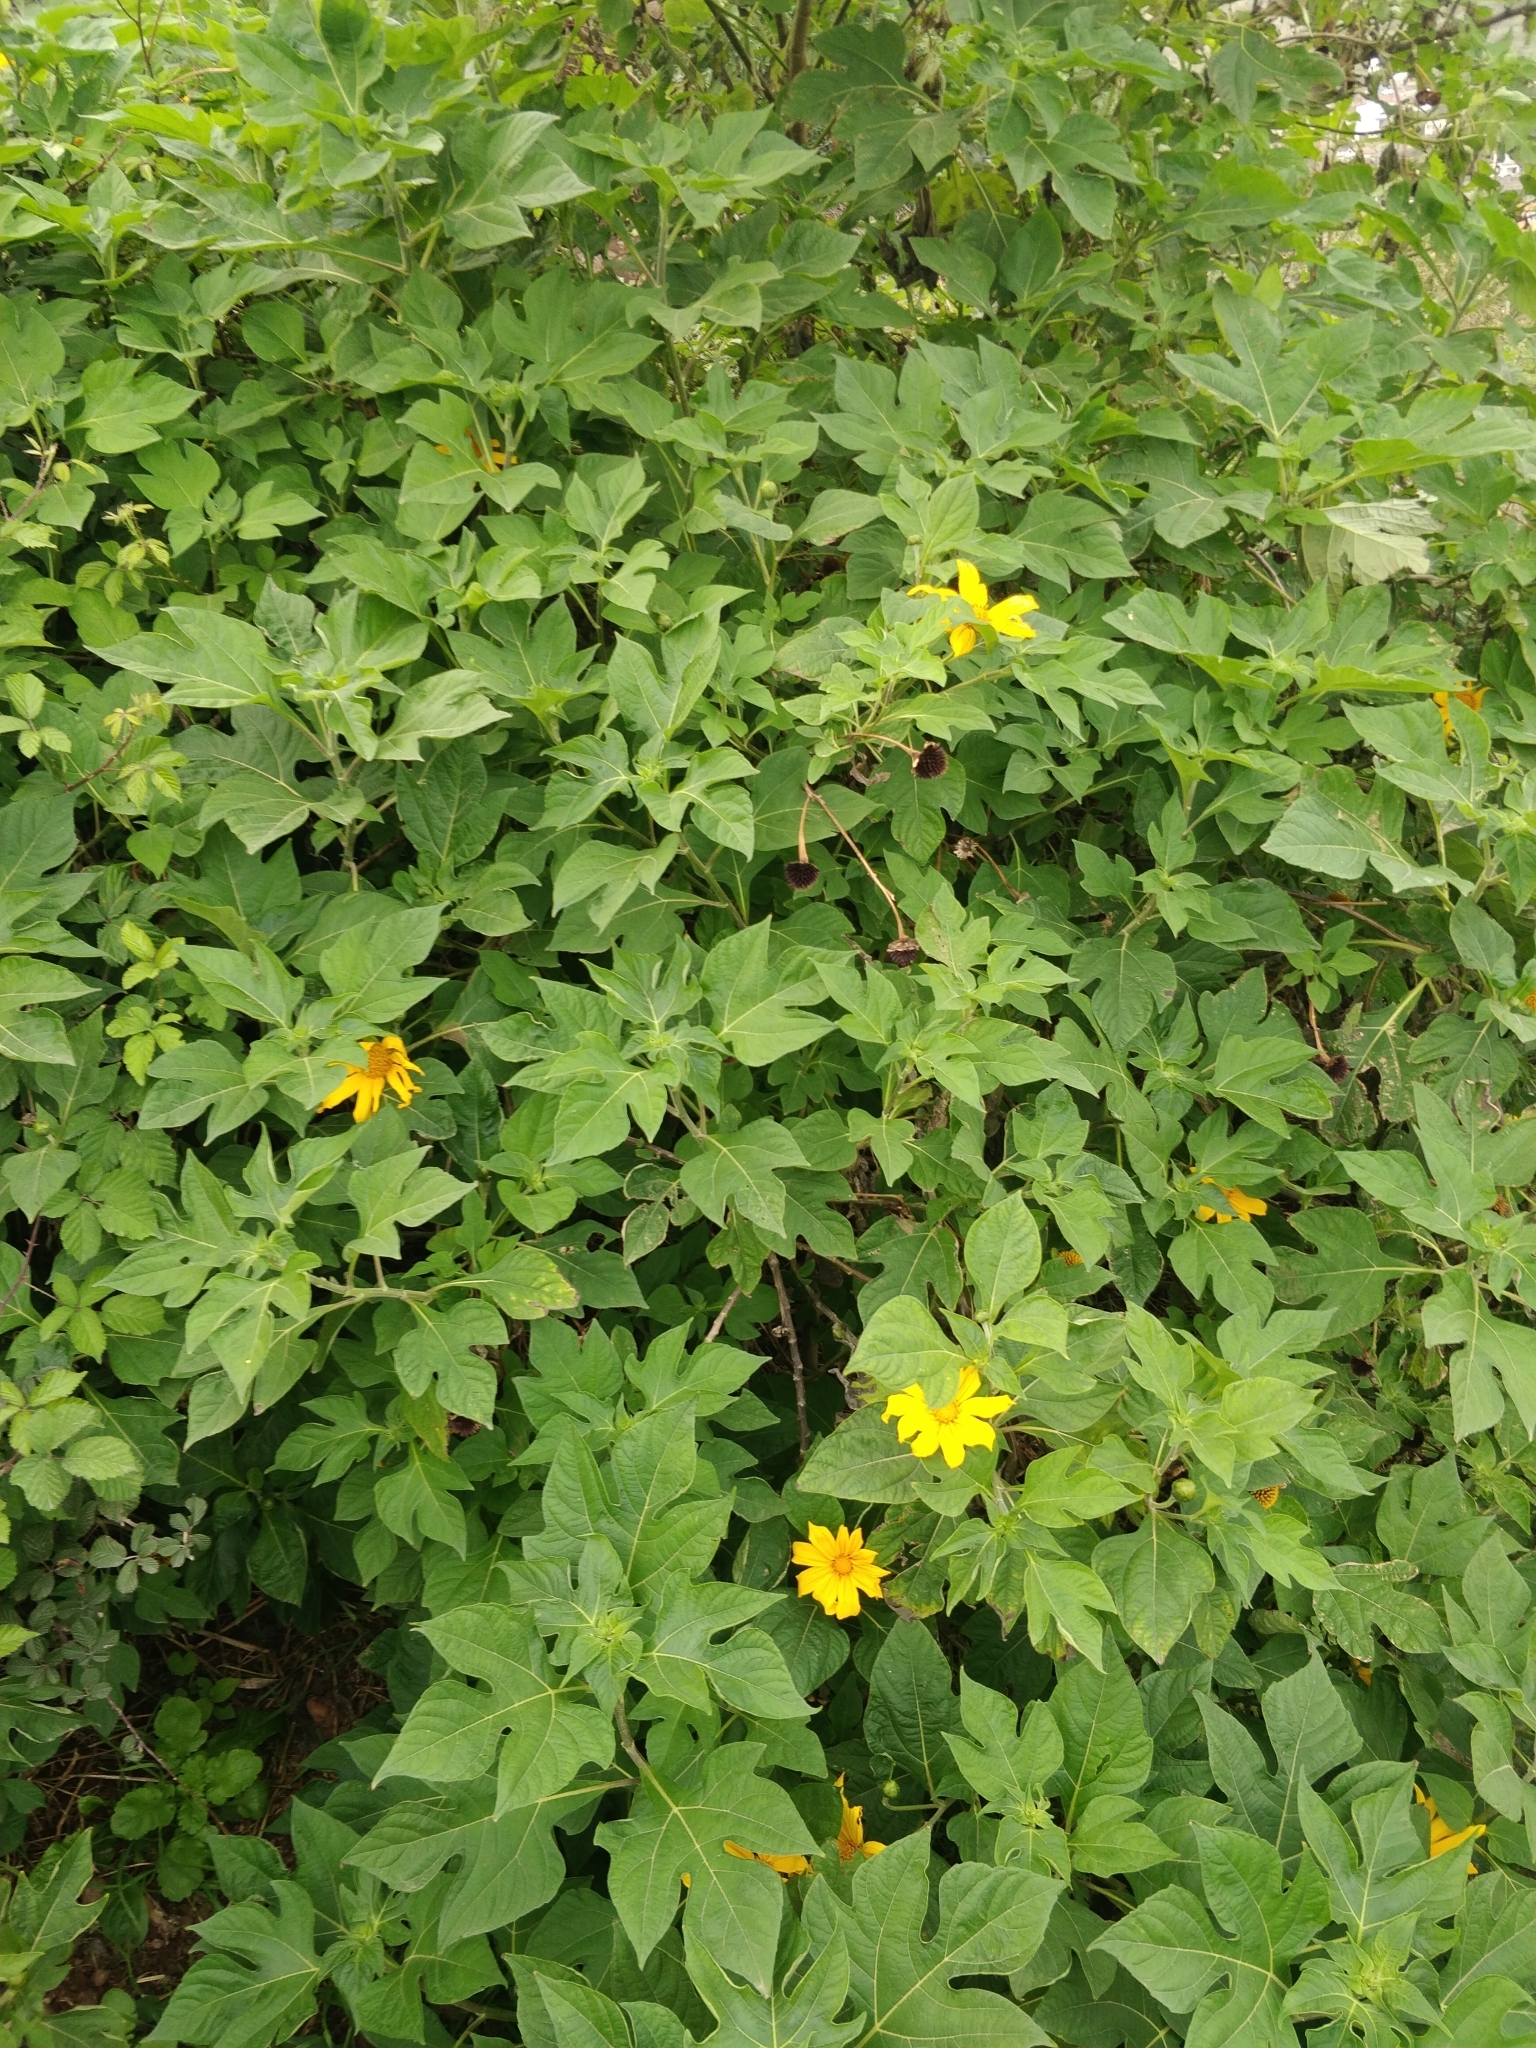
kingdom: Plantae
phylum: Tracheophyta
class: Magnoliopsida
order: Asterales
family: Asteraceae
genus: Tithonia
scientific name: Tithonia diversifolia
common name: Tree marigold
